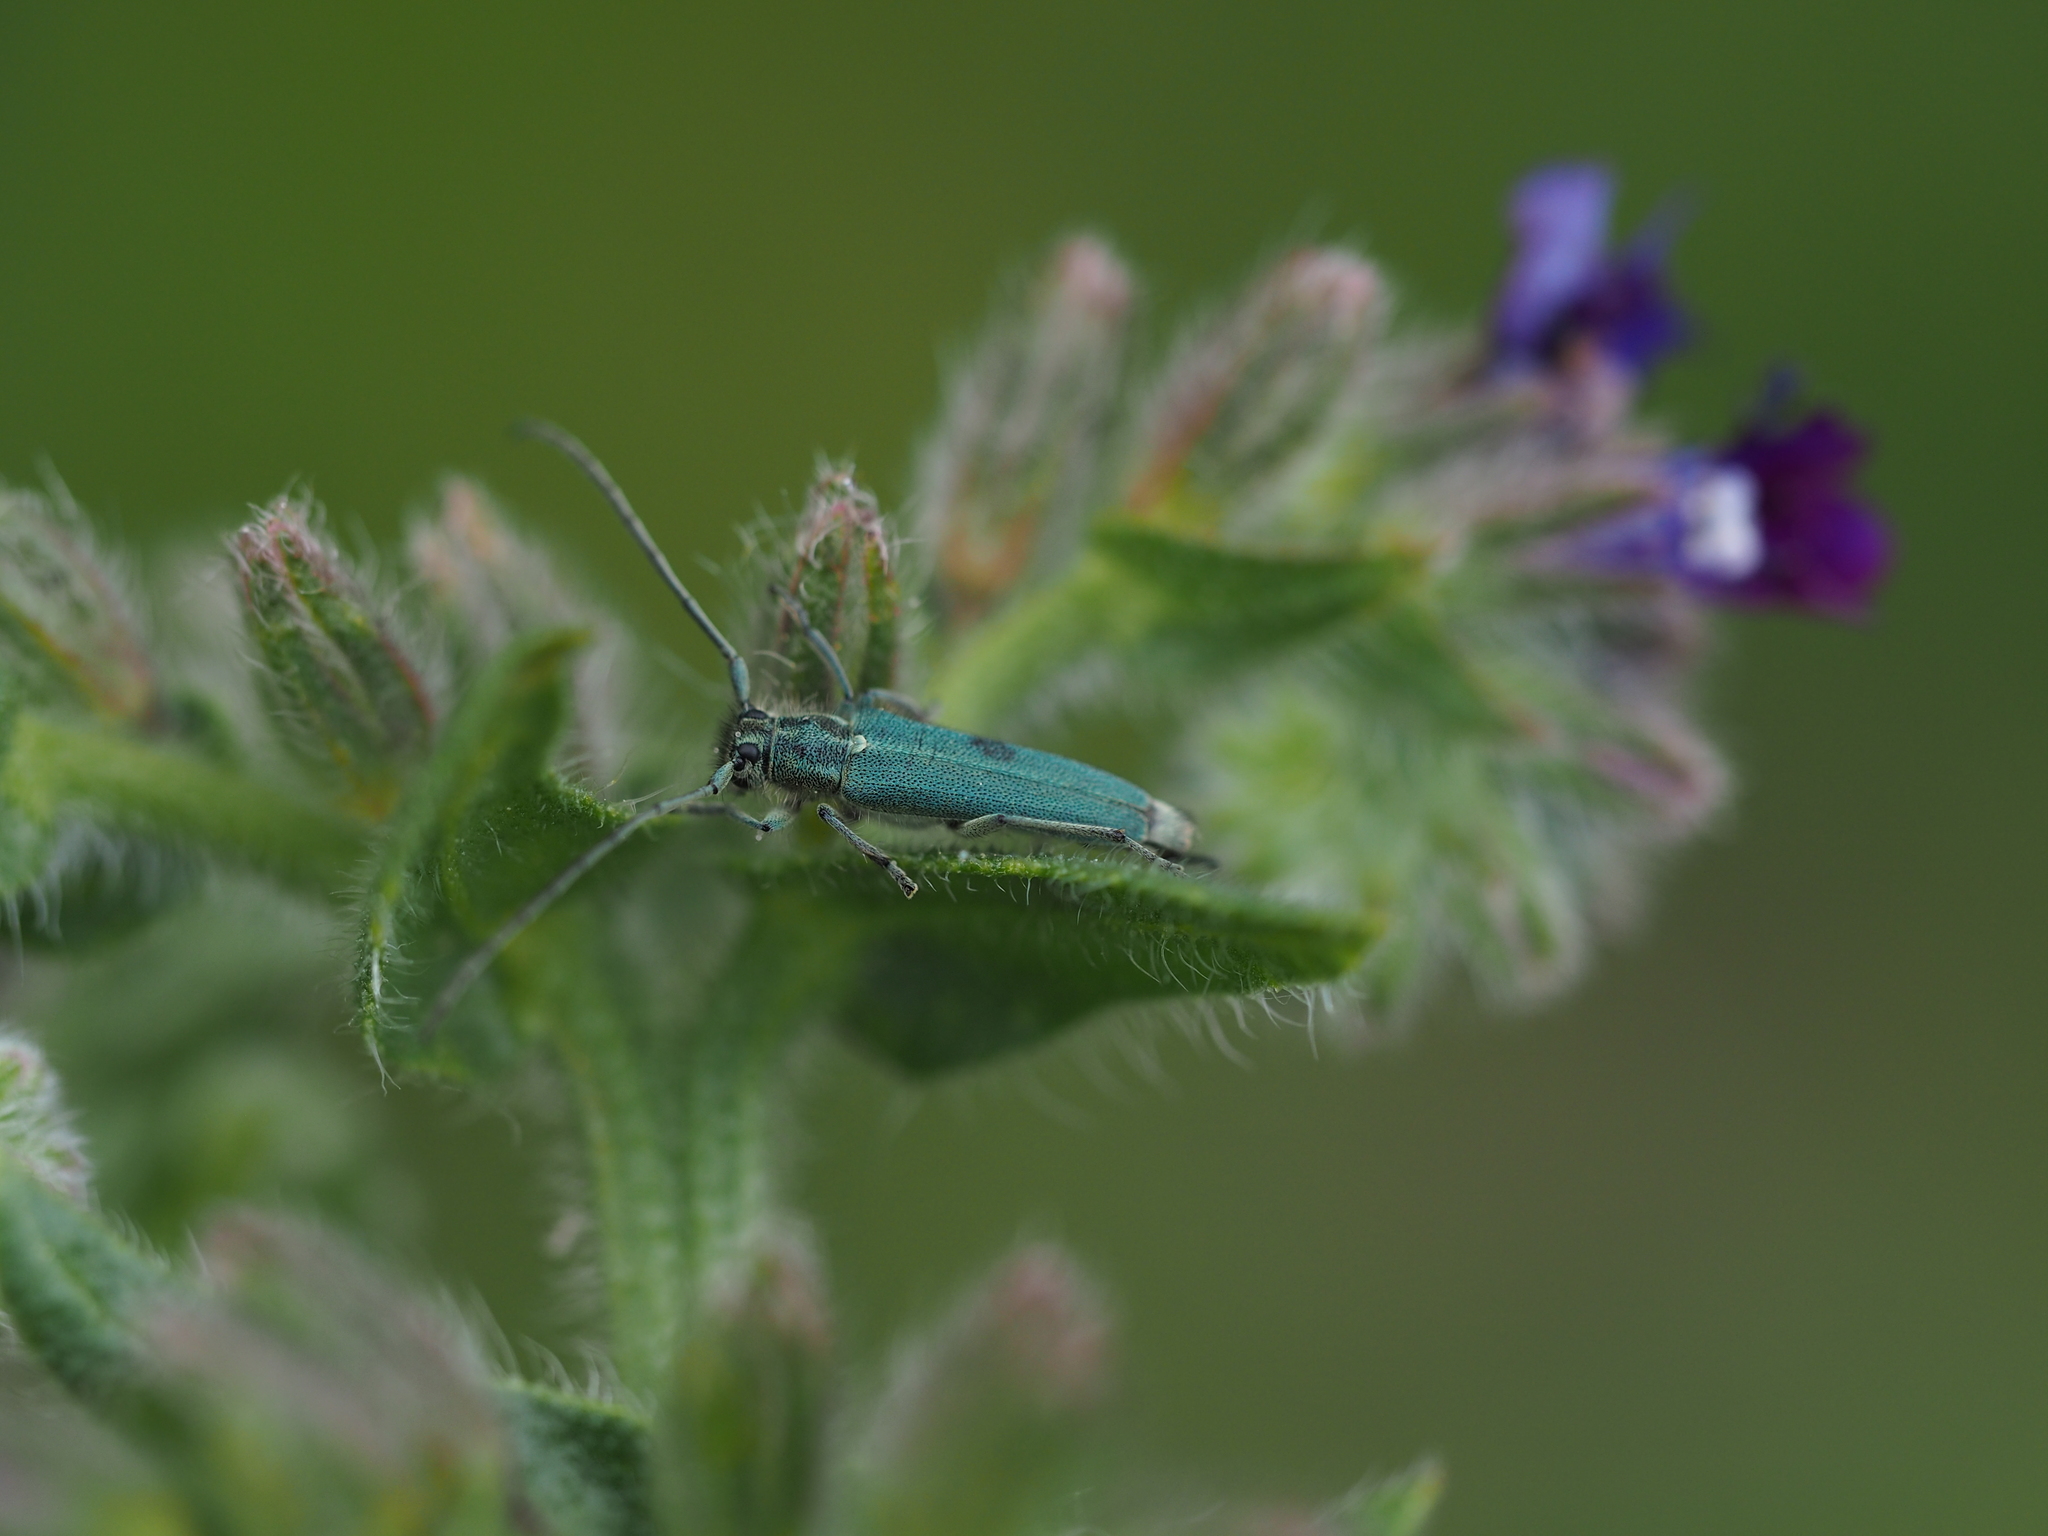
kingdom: Animalia
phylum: Arthropoda
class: Insecta
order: Coleoptera
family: Cerambycidae
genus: Phytoecia
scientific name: Phytoecia coerulescens
